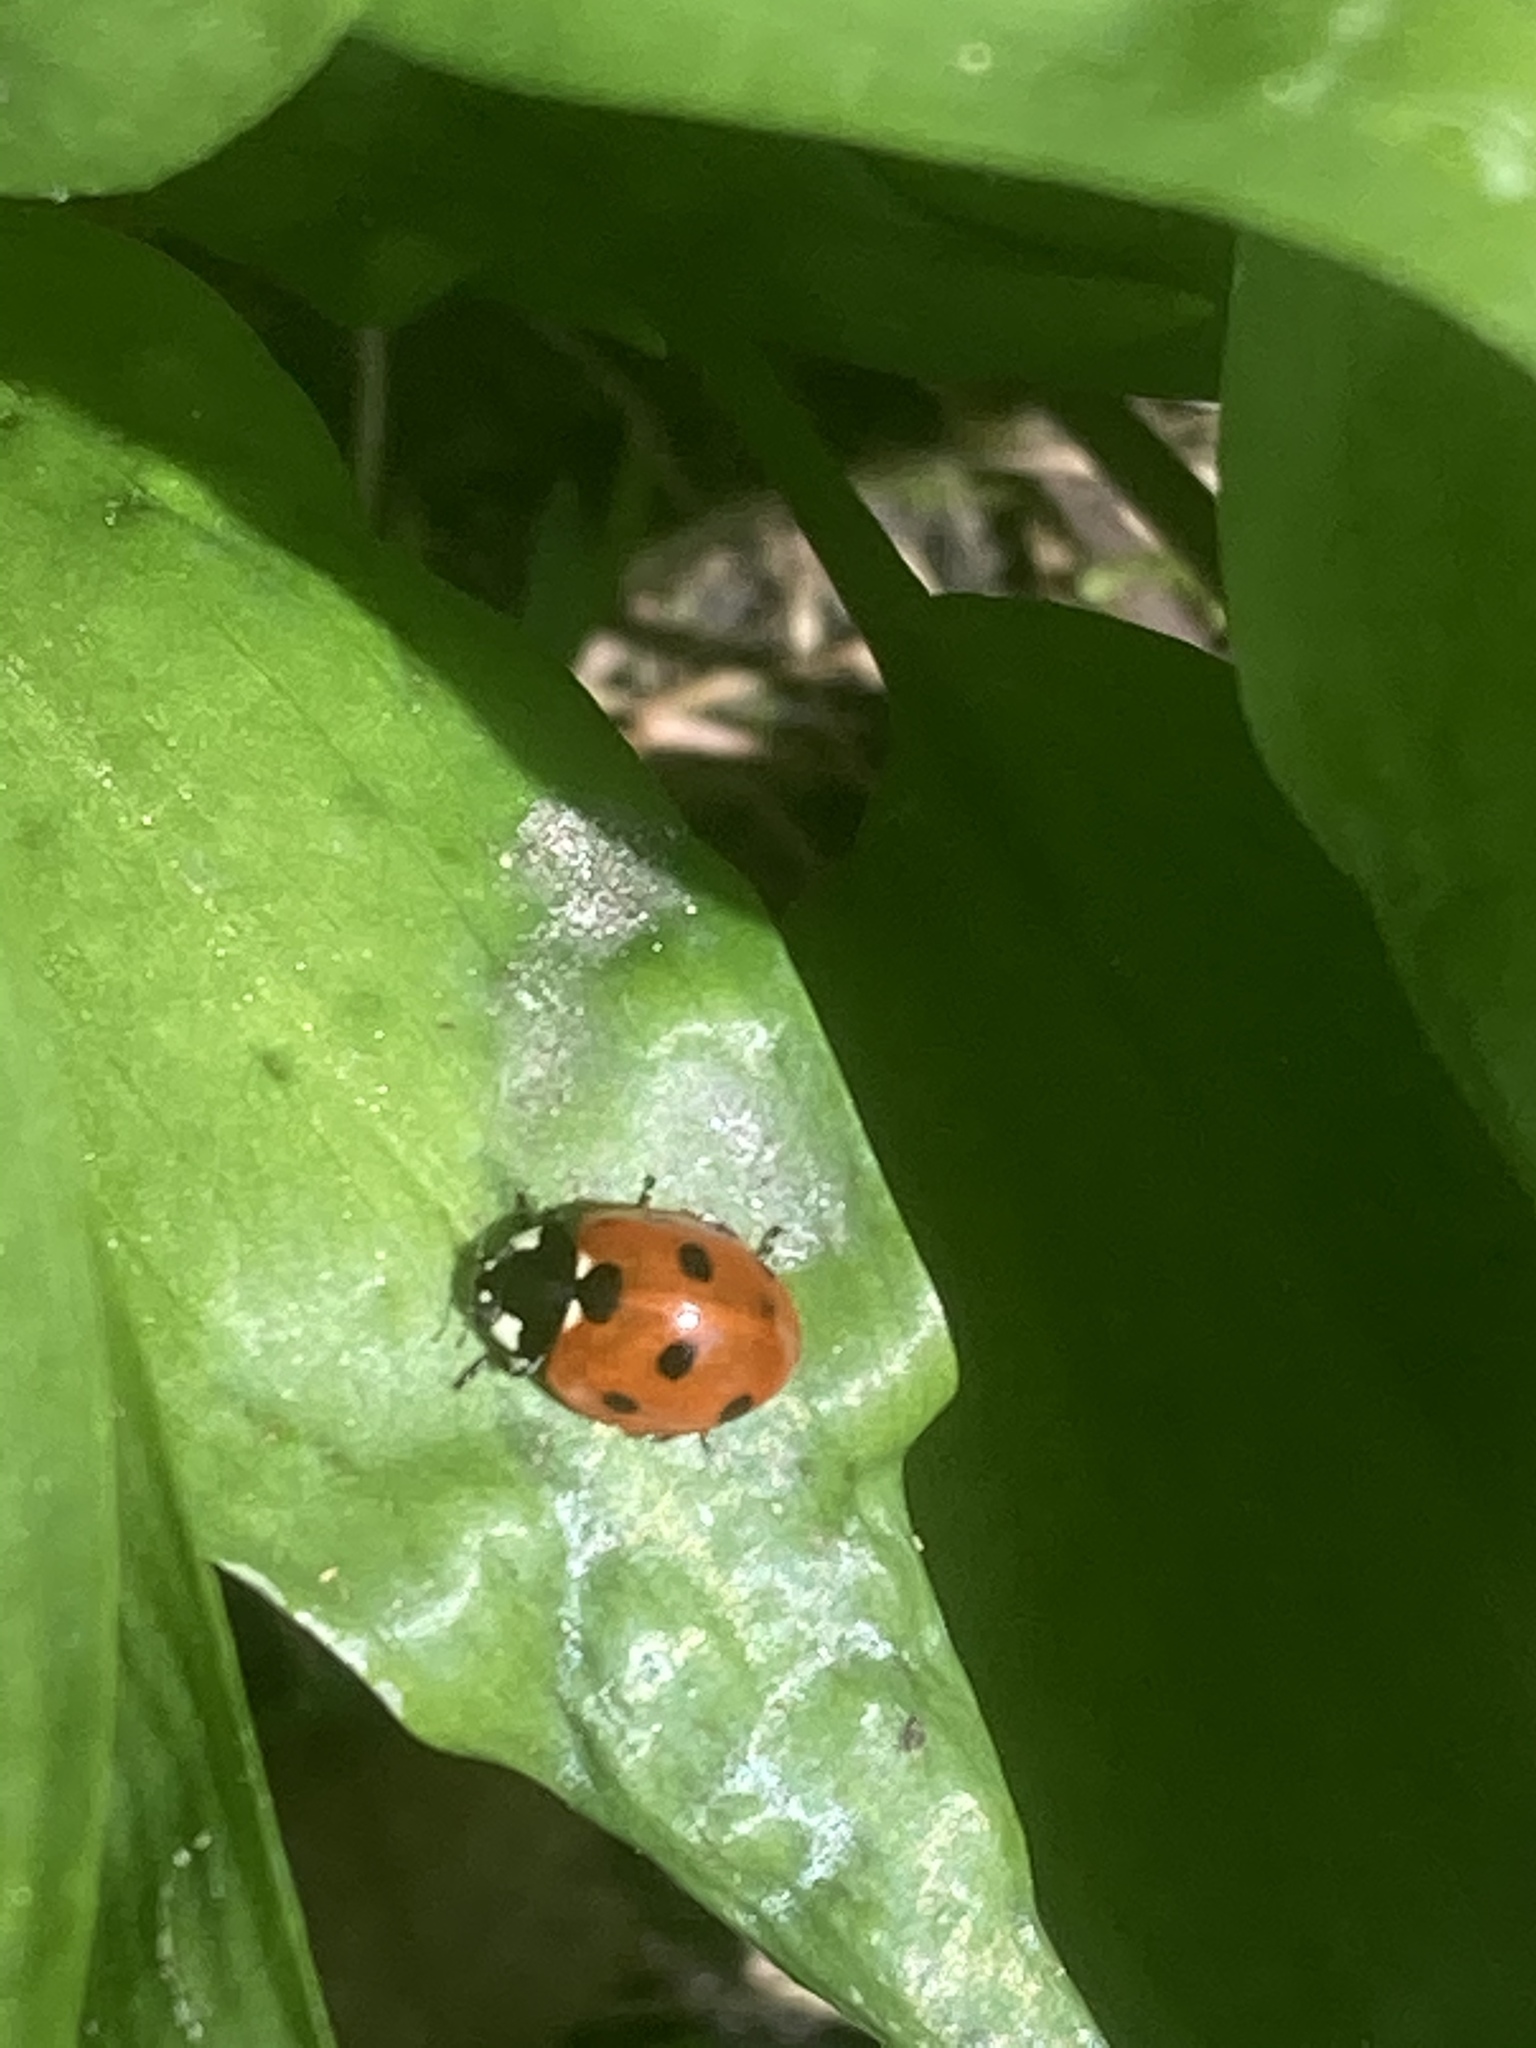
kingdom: Plantae
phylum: Tracheophyta
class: Liliopsida
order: Asparagales
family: Amaryllidaceae
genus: Allium
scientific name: Allium ursinum
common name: Ramsons
